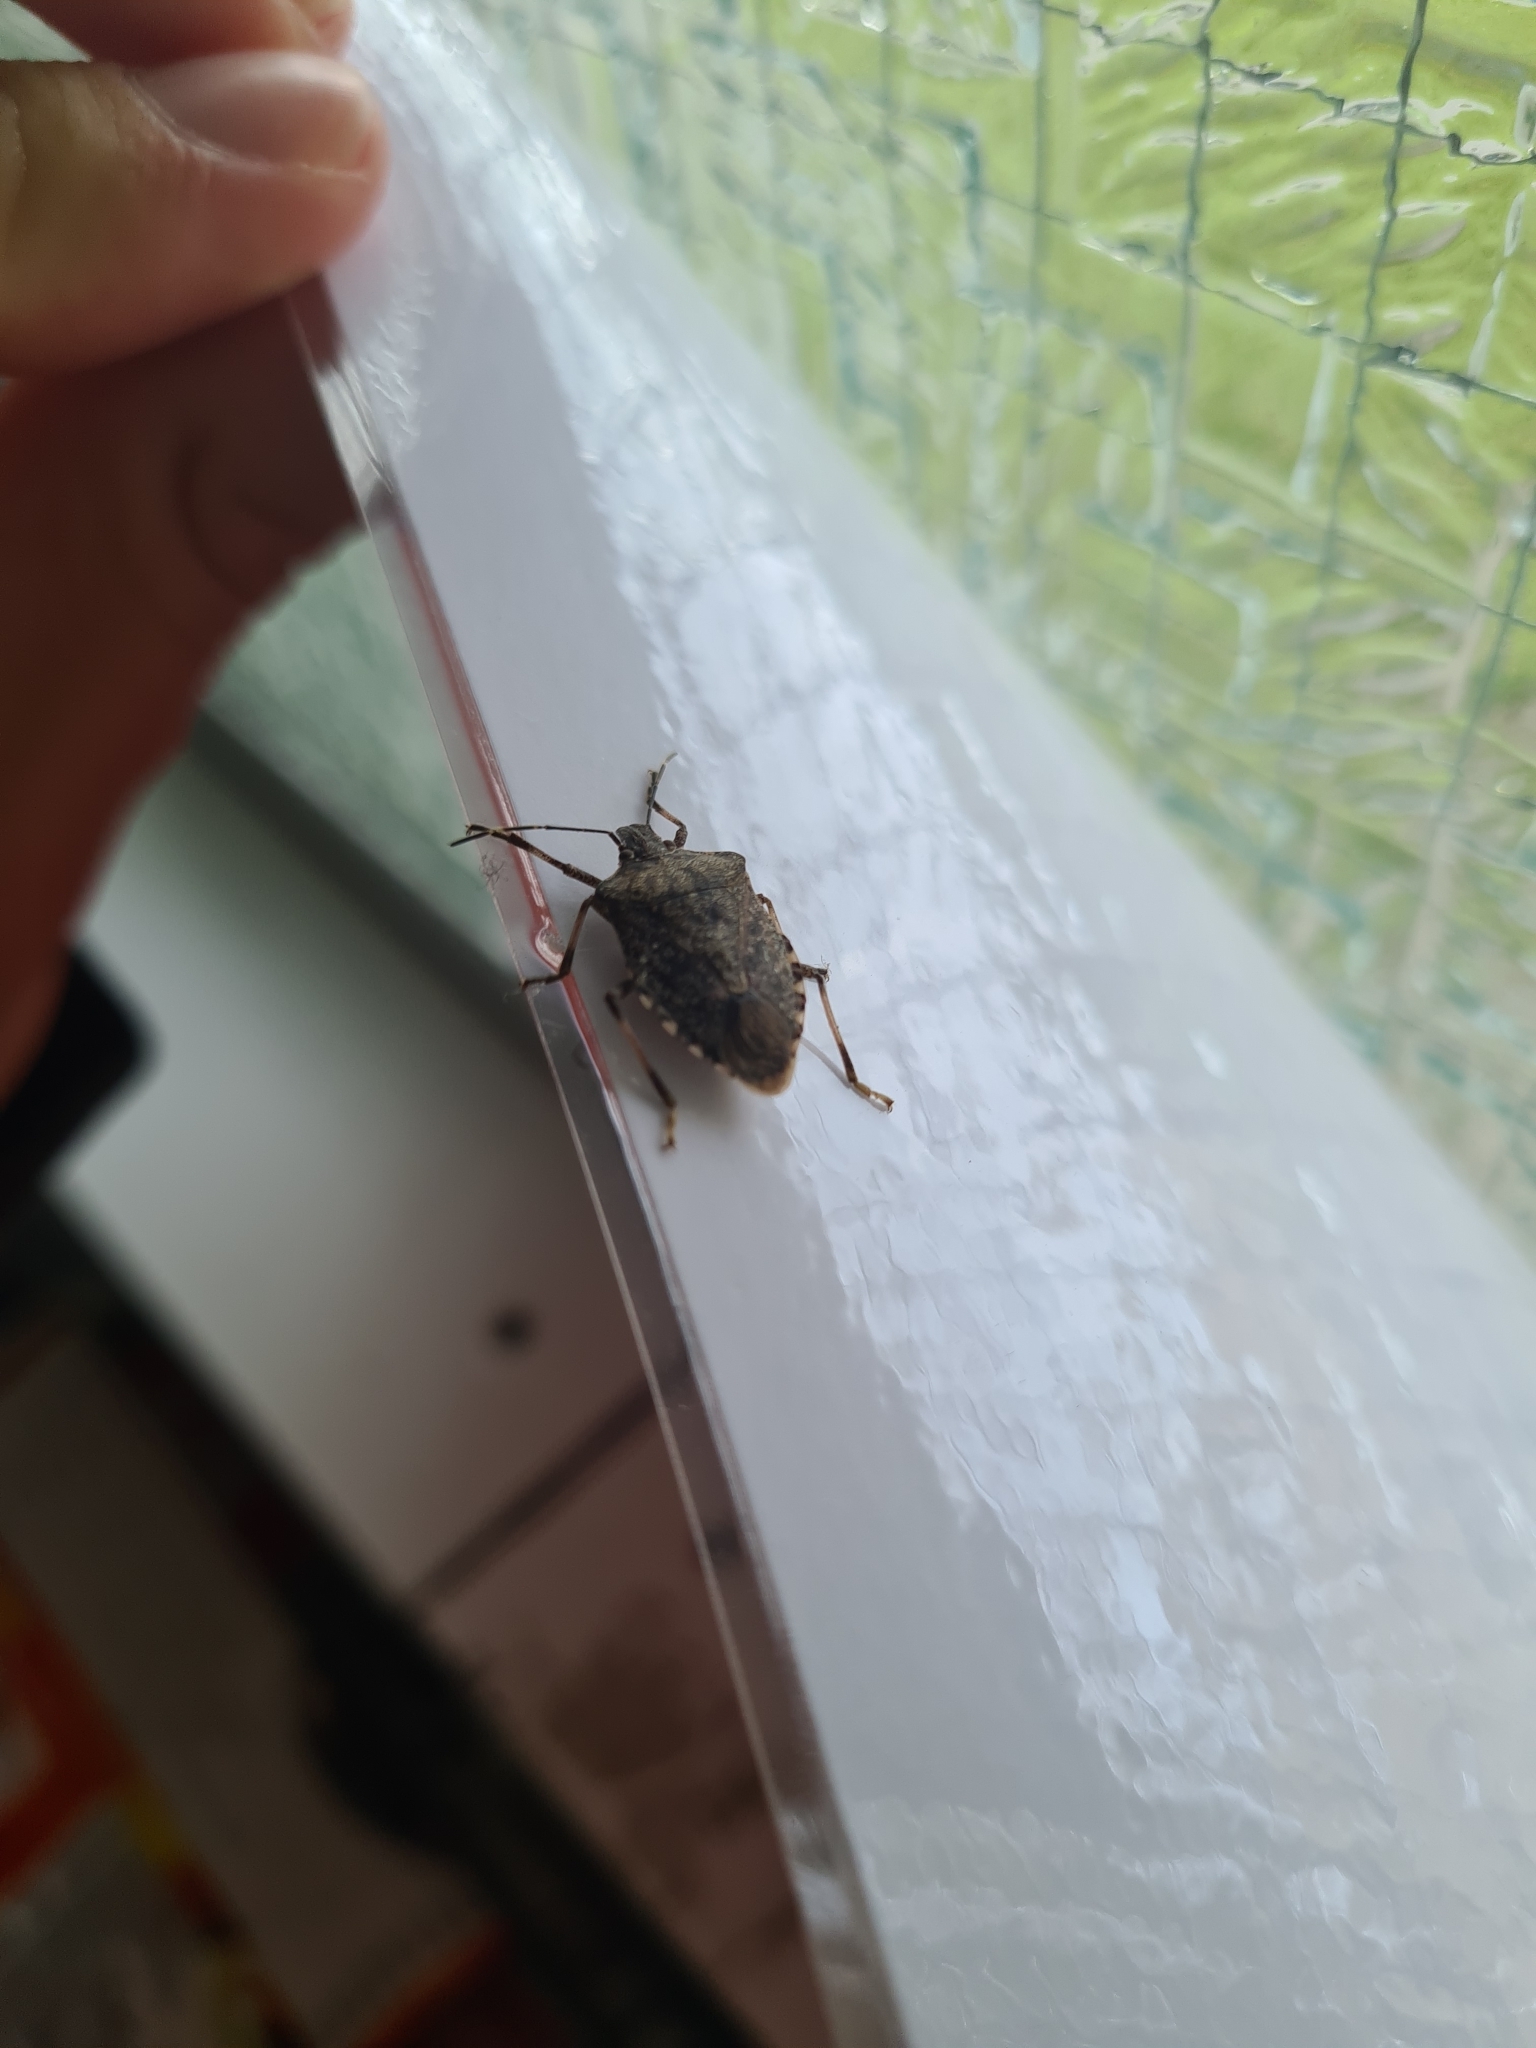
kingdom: Animalia
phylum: Arthropoda
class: Insecta
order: Hemiptera
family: Pentatomidae
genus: Halyomorpha
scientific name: Halyomorpha halys
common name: Brown marmorated stink bug
